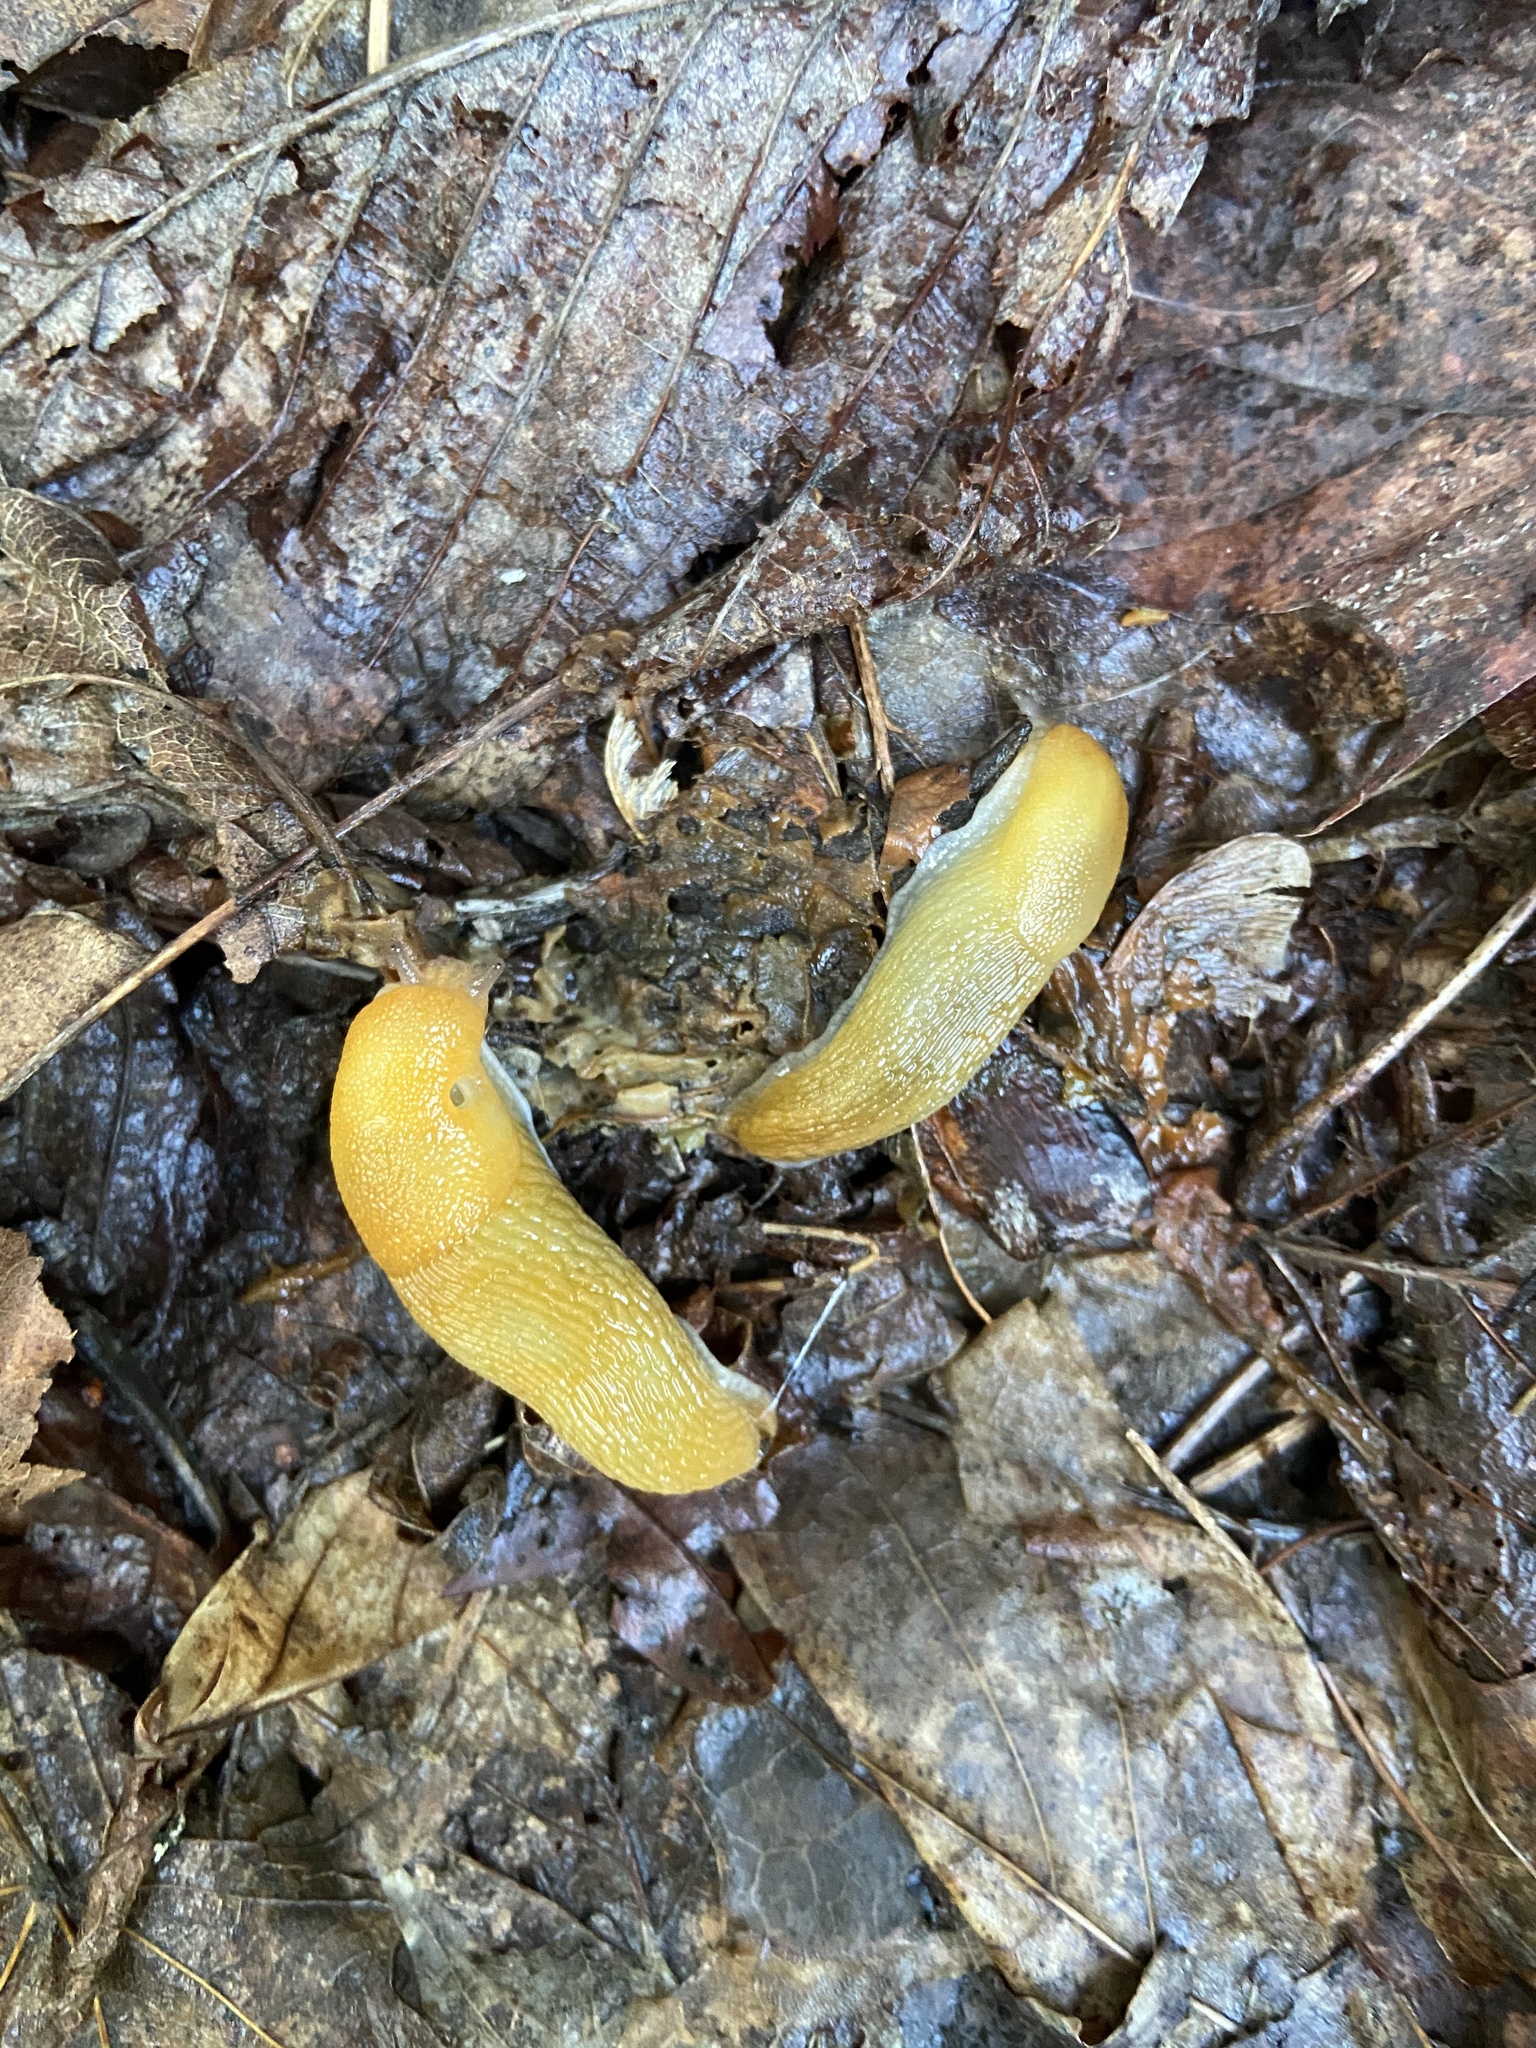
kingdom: Animalia
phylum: Mollusca
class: Gastropoda
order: Stylommatophora
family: Arionidae
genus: Arion
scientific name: Arion subfuscus
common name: Dusky arion
